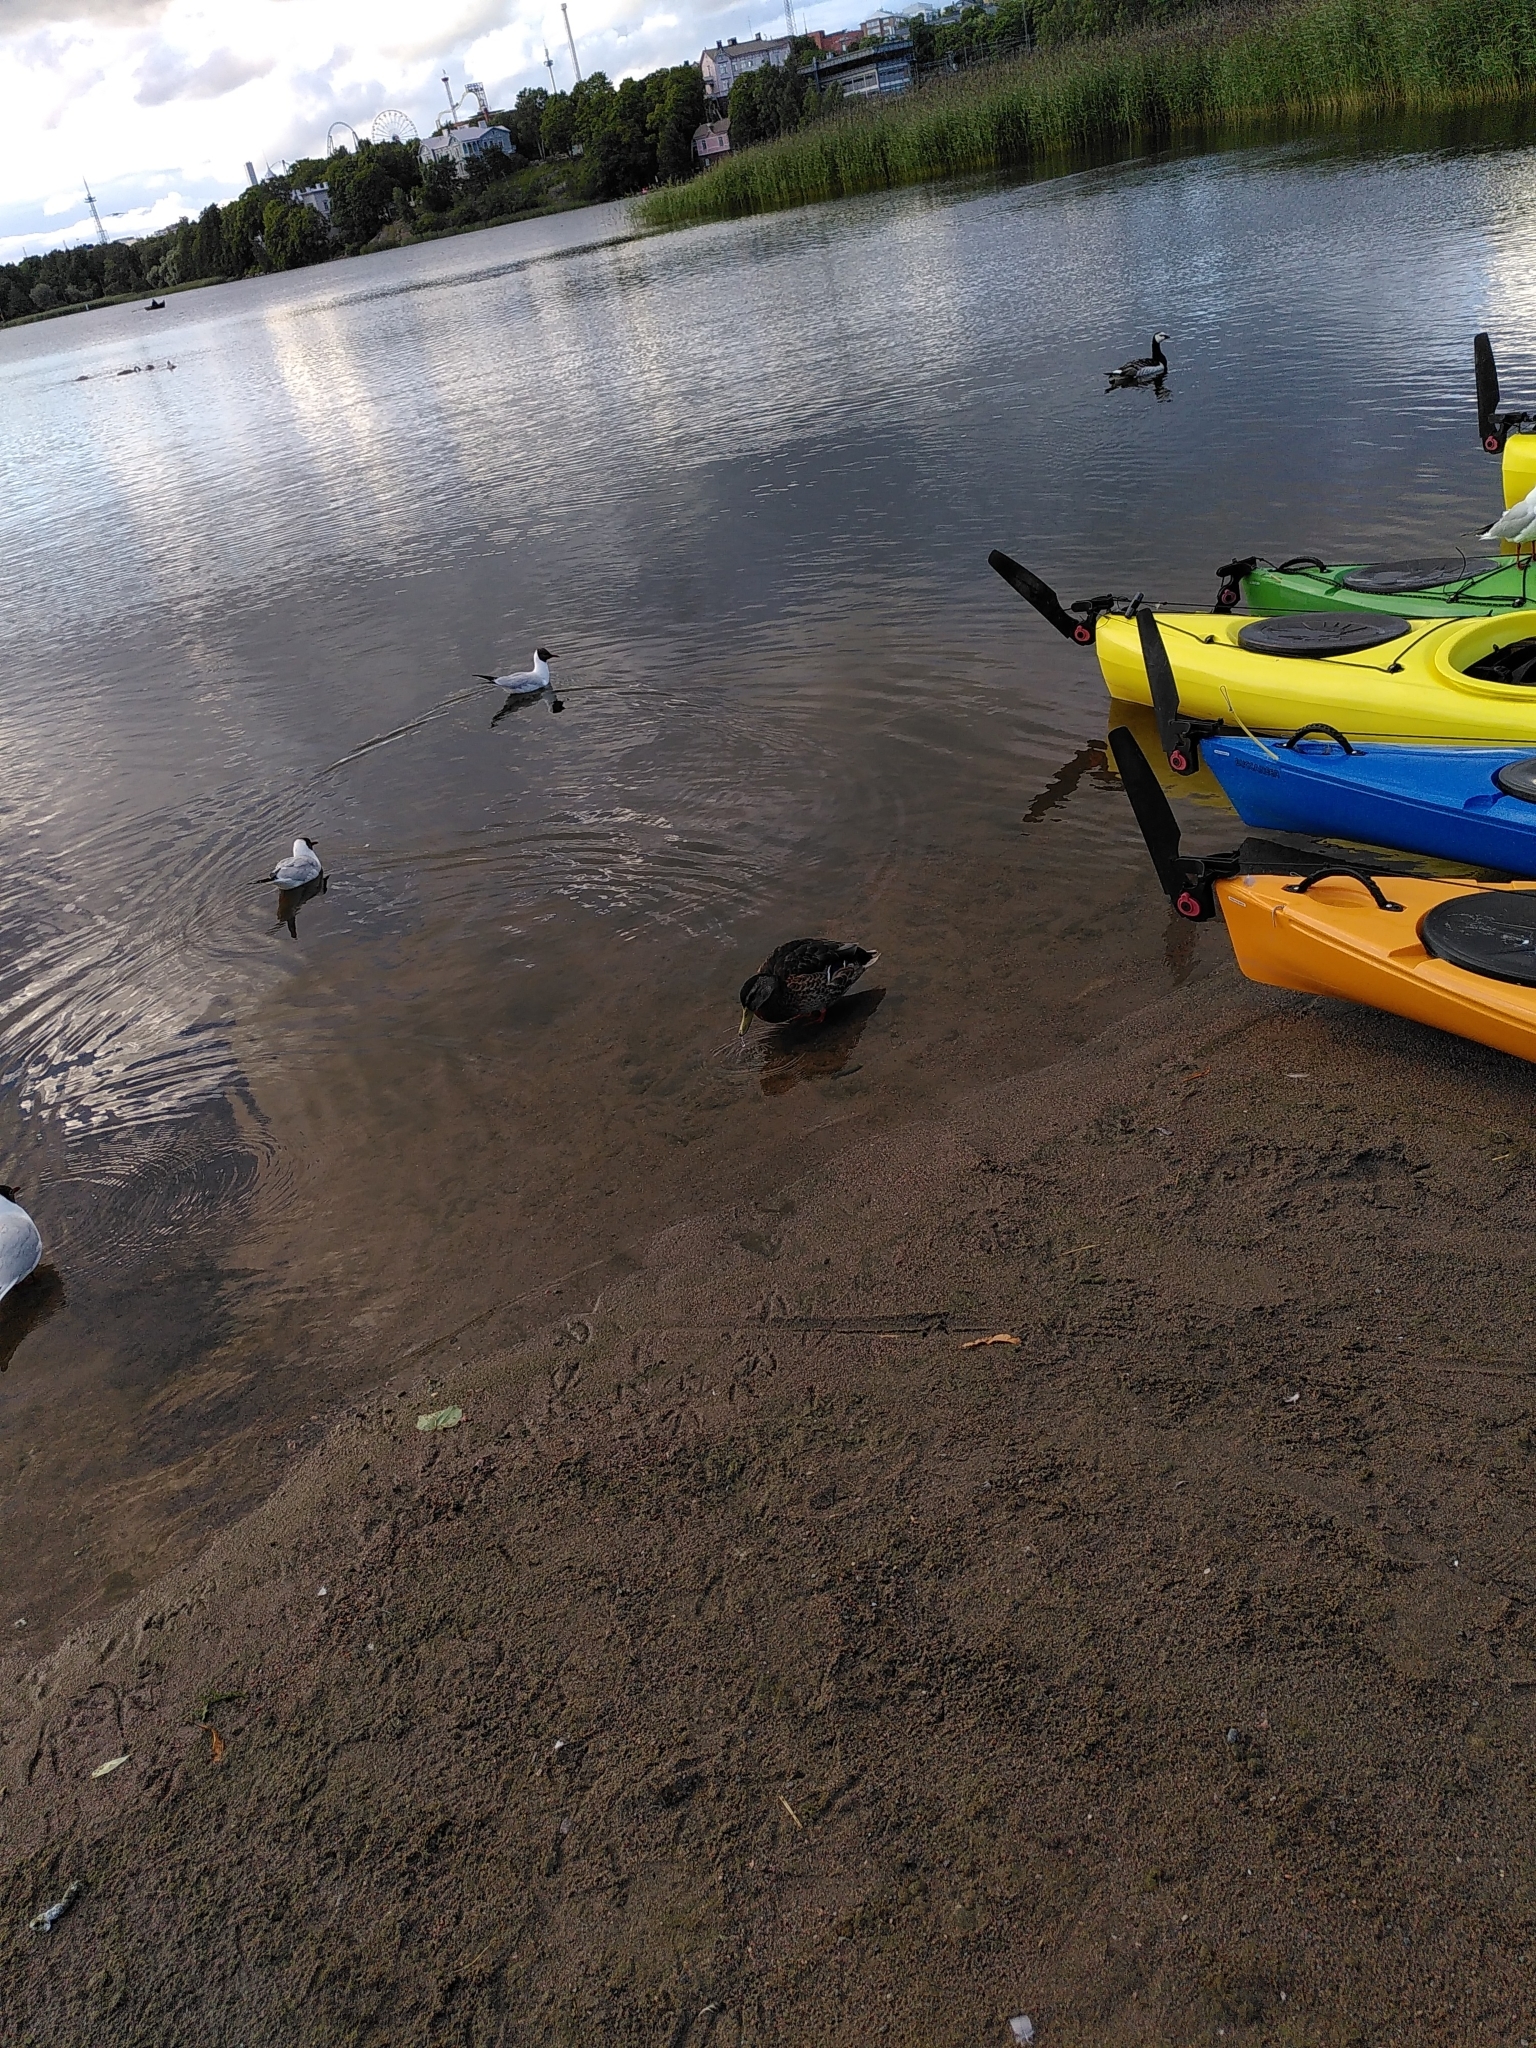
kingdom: Animalia
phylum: Chordata
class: Aves
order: Anseriformes
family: Anatidae
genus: Anas
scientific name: Anas platyrhynchos
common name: Mallard
